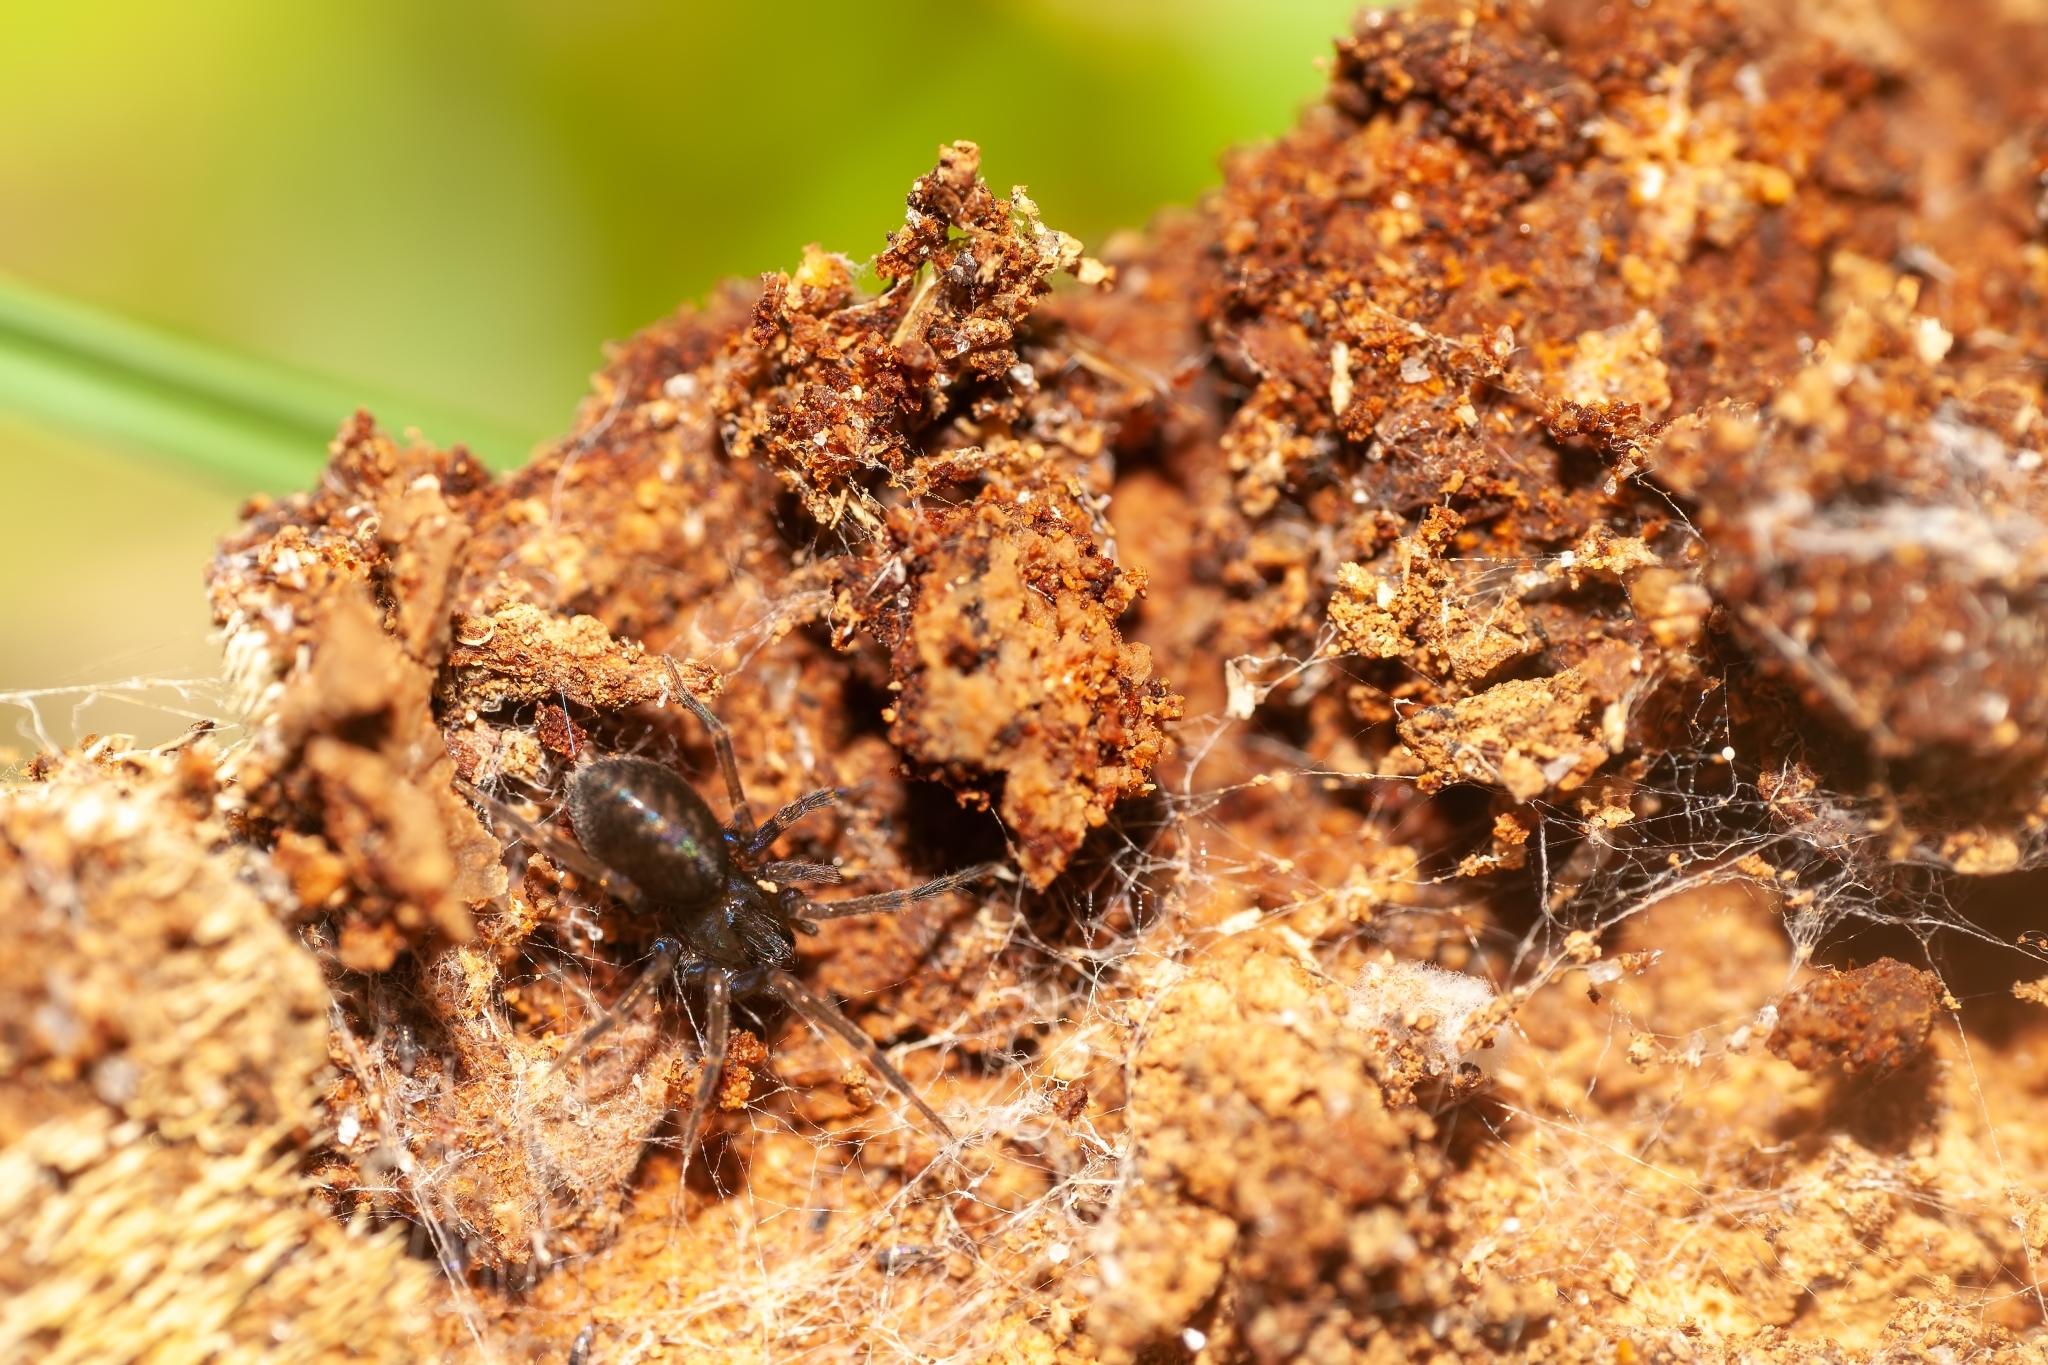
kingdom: Animalia
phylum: Arthropoda
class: Arachnida
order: Araneae
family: Desidae
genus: Metaltella
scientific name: Metaltella simoni
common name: Cribellate spider
